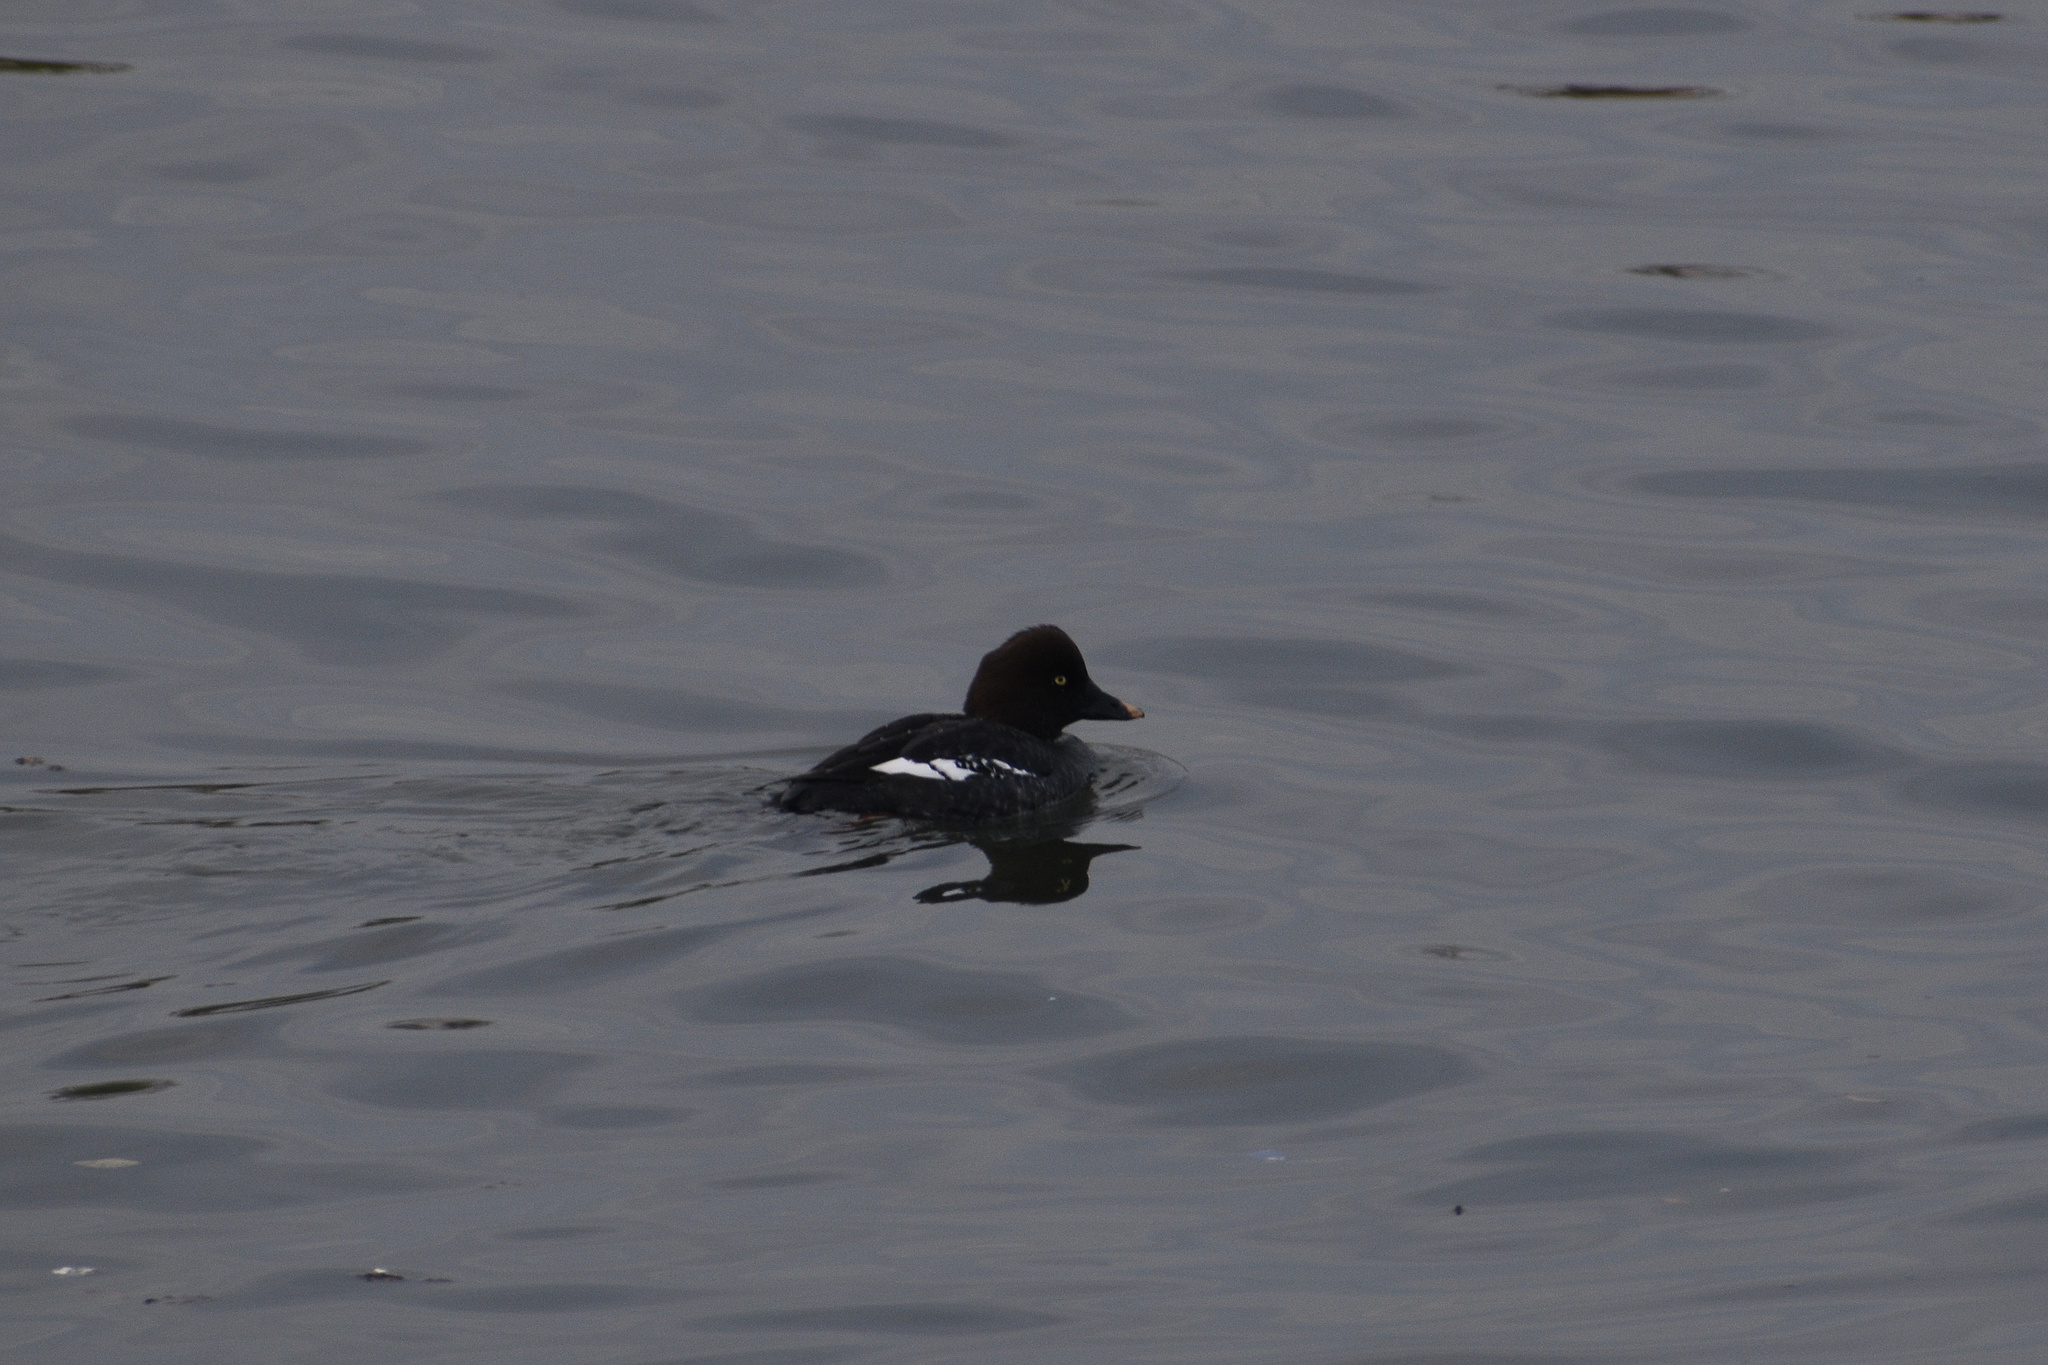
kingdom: Animalia
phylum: Chordata
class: Aves
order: Anseriformes
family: Anatidae
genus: Bucephala
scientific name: Bucephala clangula
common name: Common goldeneye
